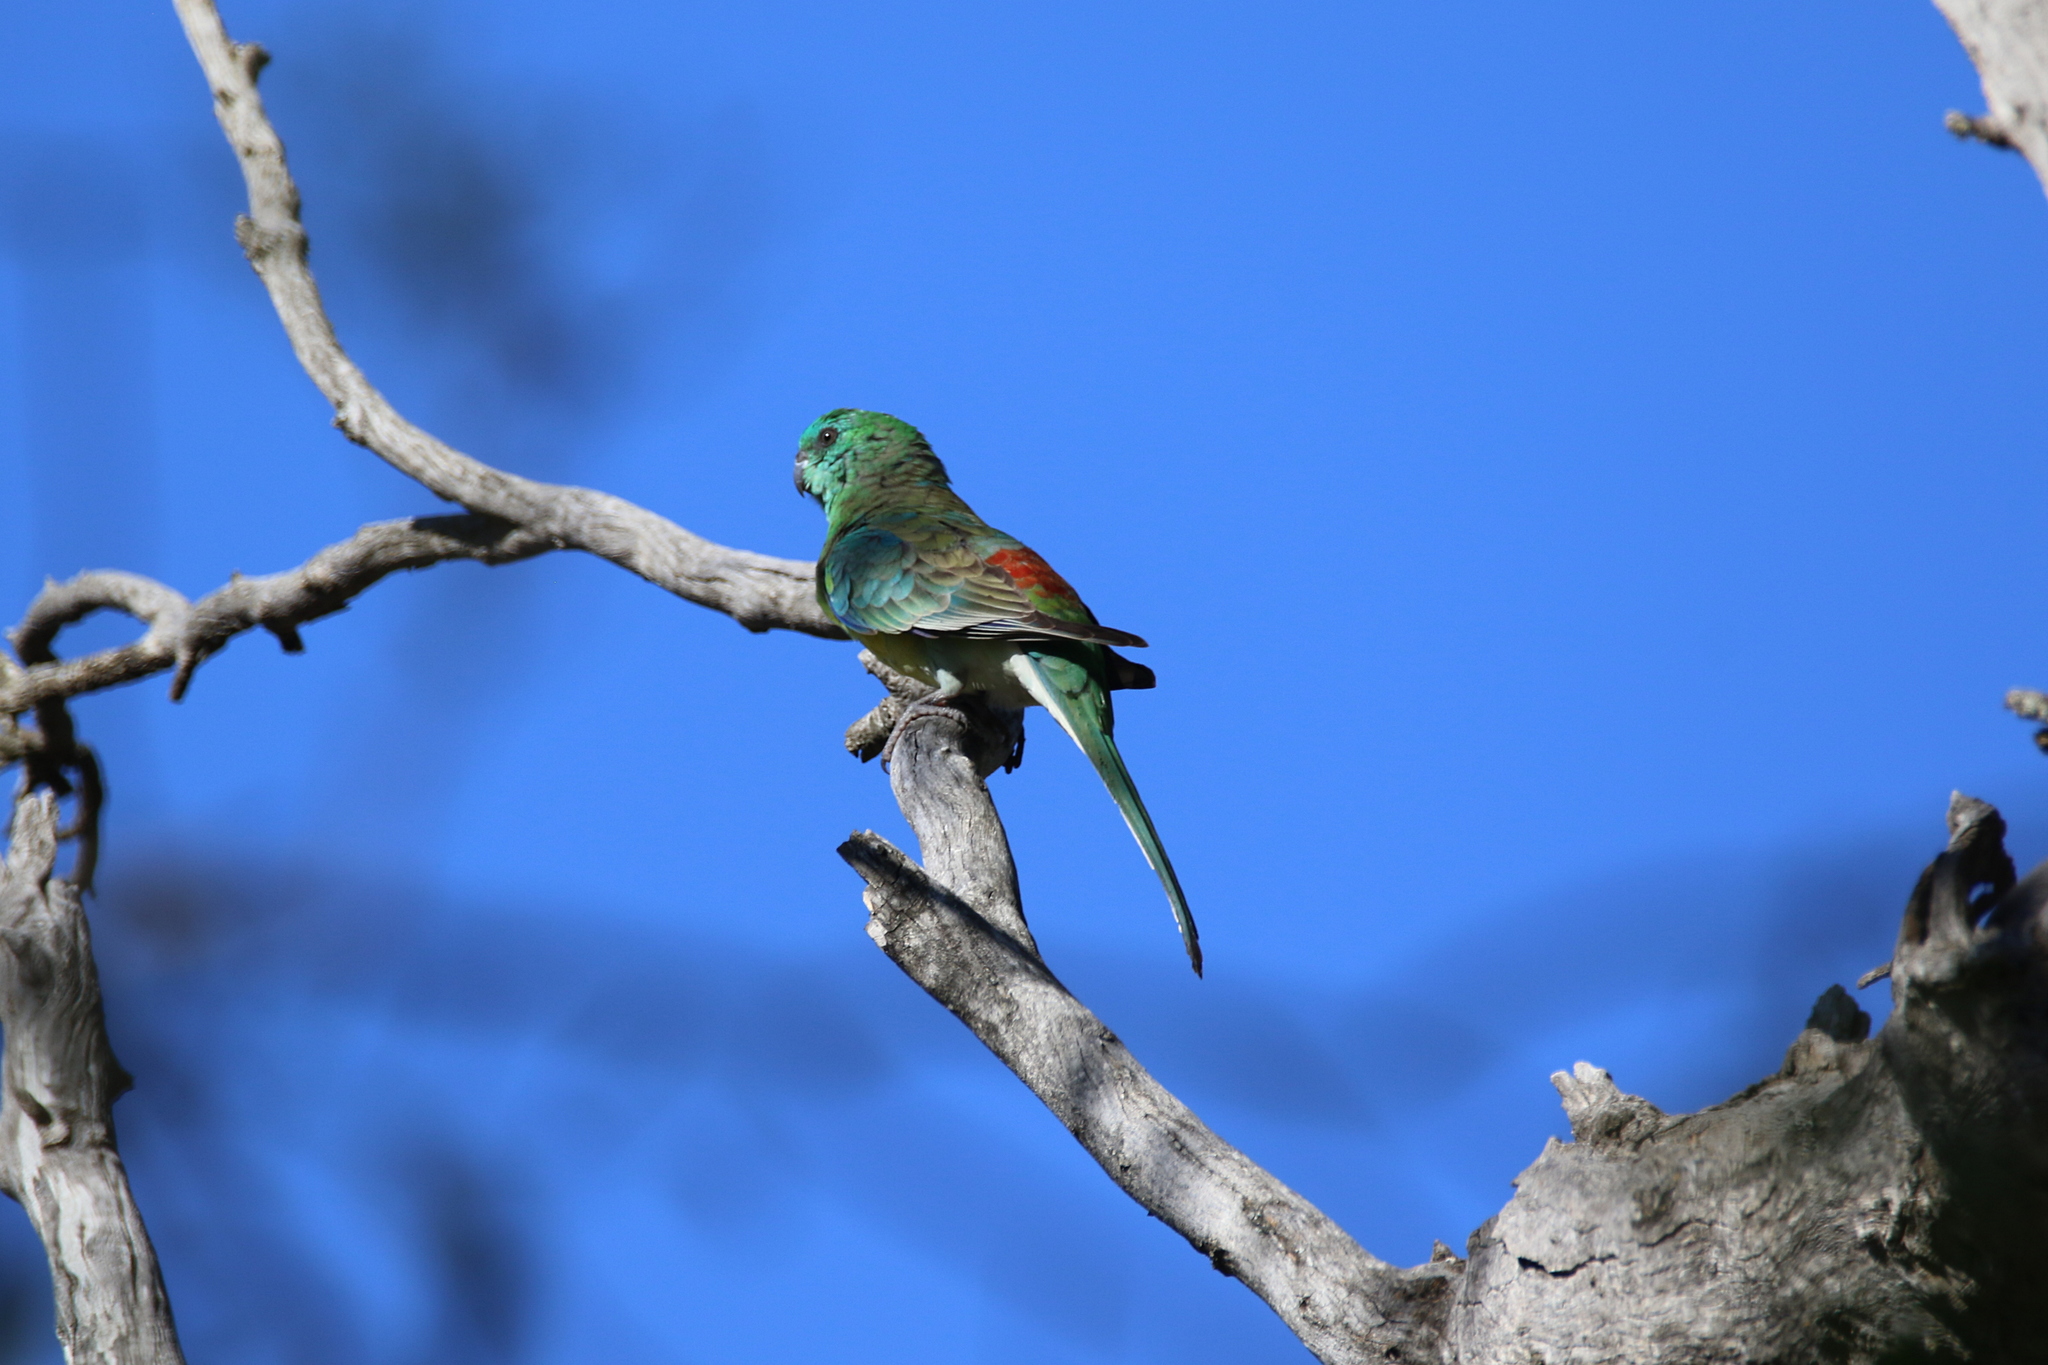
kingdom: Animalia
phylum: Chordata
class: Aves
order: Psittaciformes
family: Psittacidae
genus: Psephotus
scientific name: Psephotus haematonotus
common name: Red-rumped parrot
